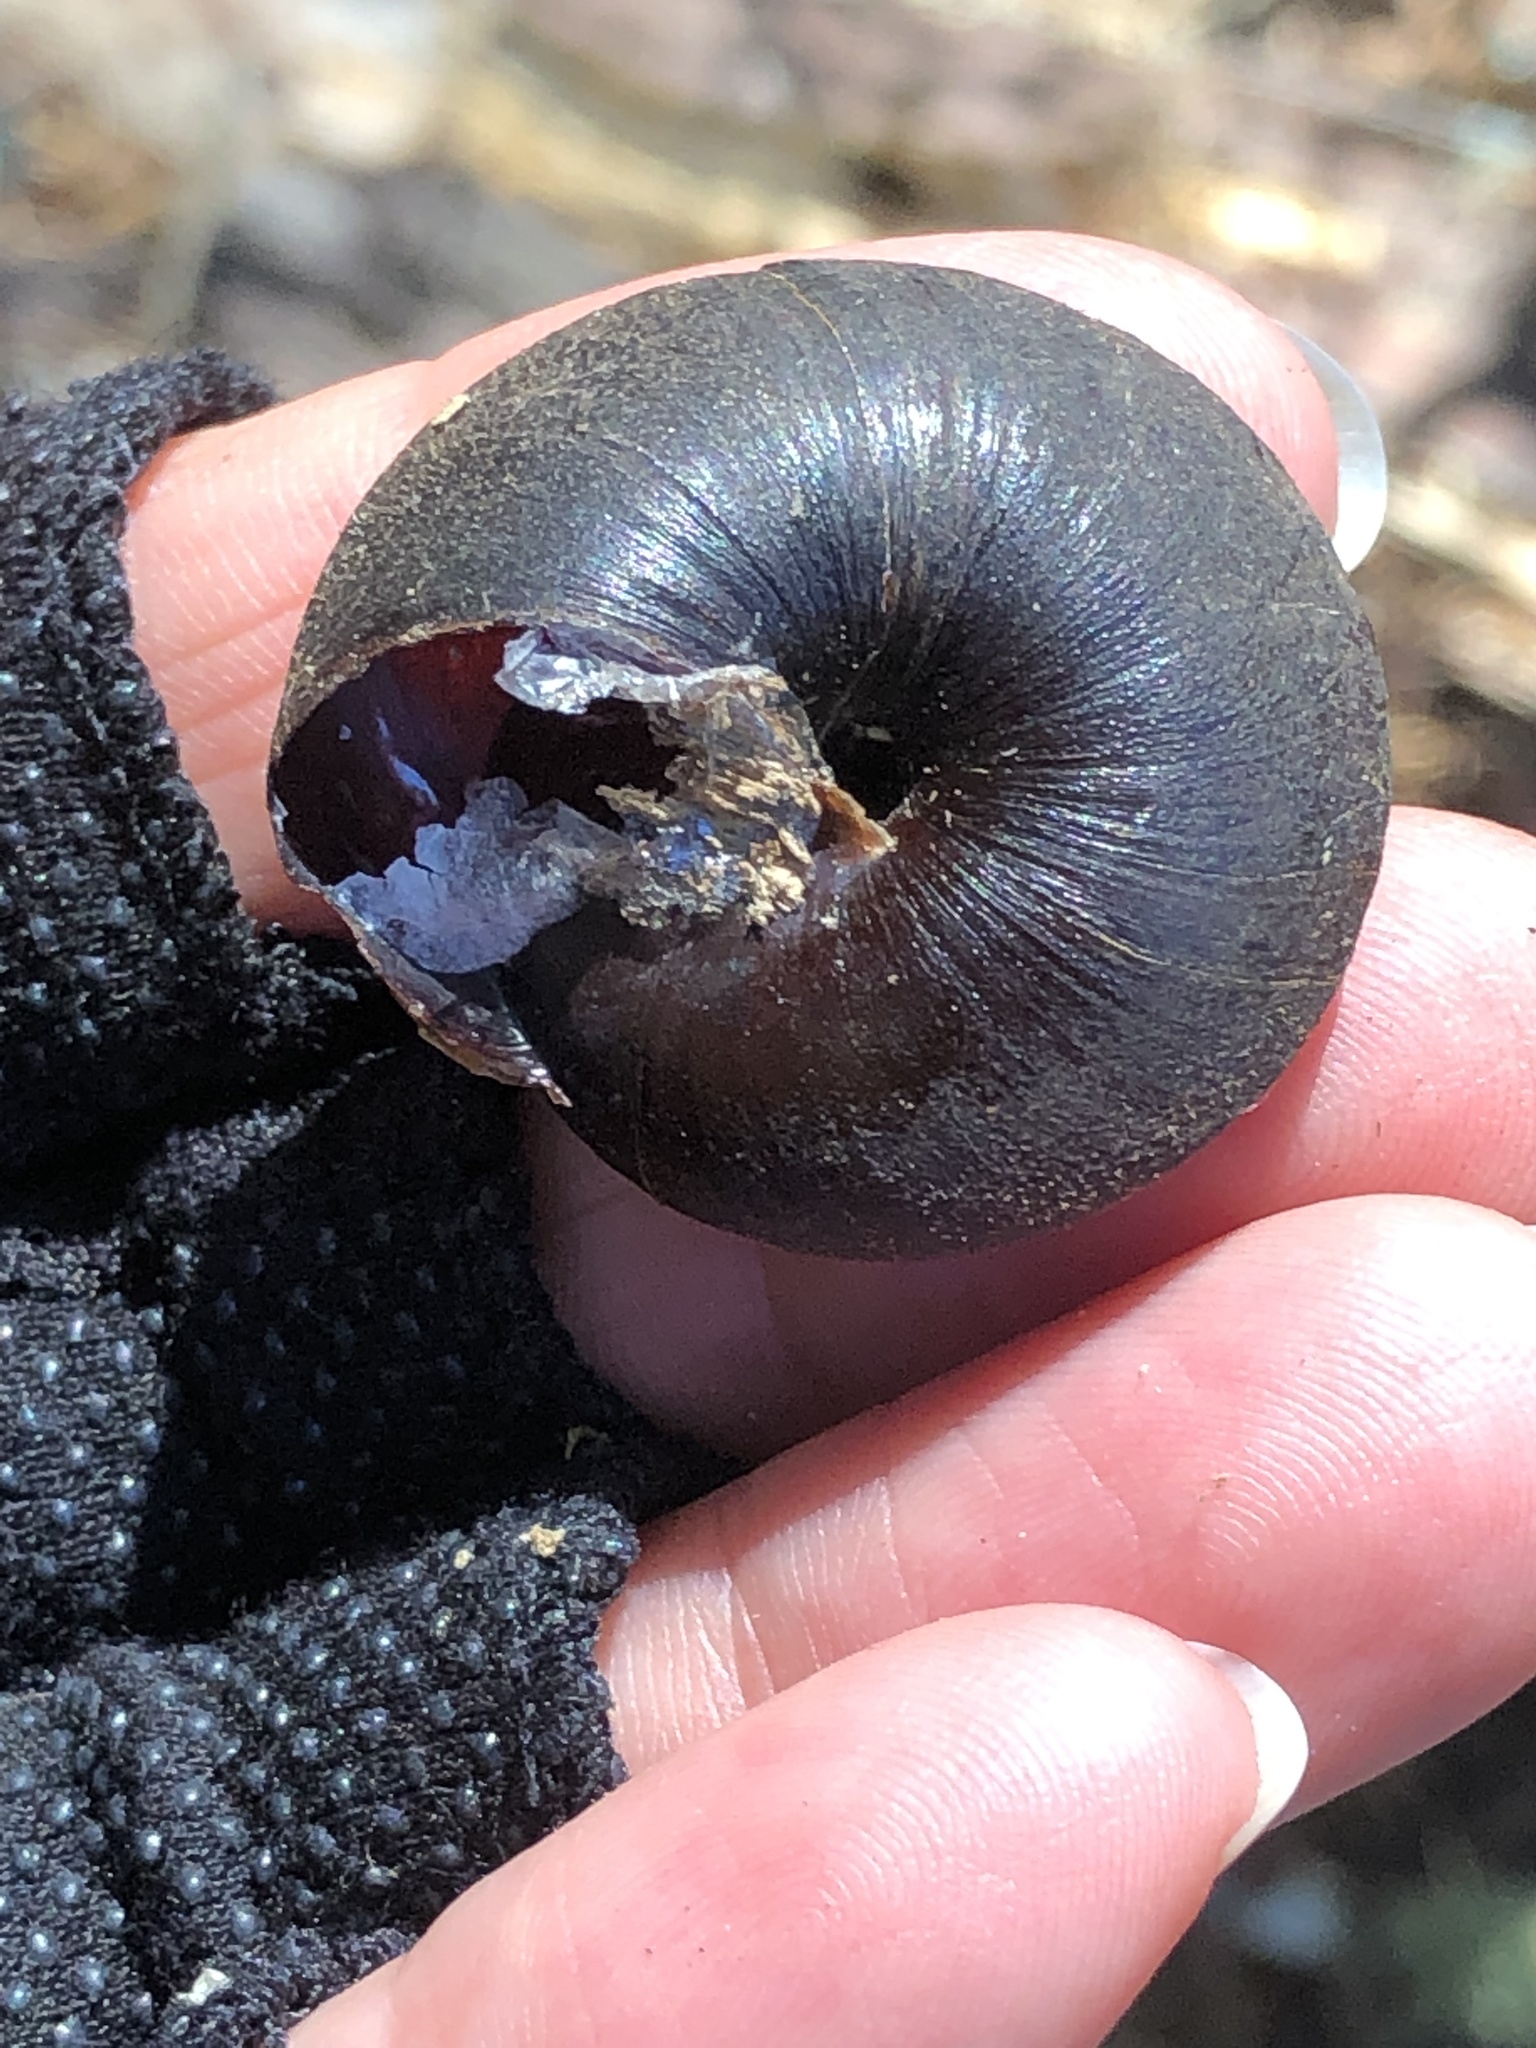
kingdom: Animalia
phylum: Mollusca
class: Gastropoda
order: Stylommatophora
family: Xanthonychidae
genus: Monadenia
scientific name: Monadenia infumata
